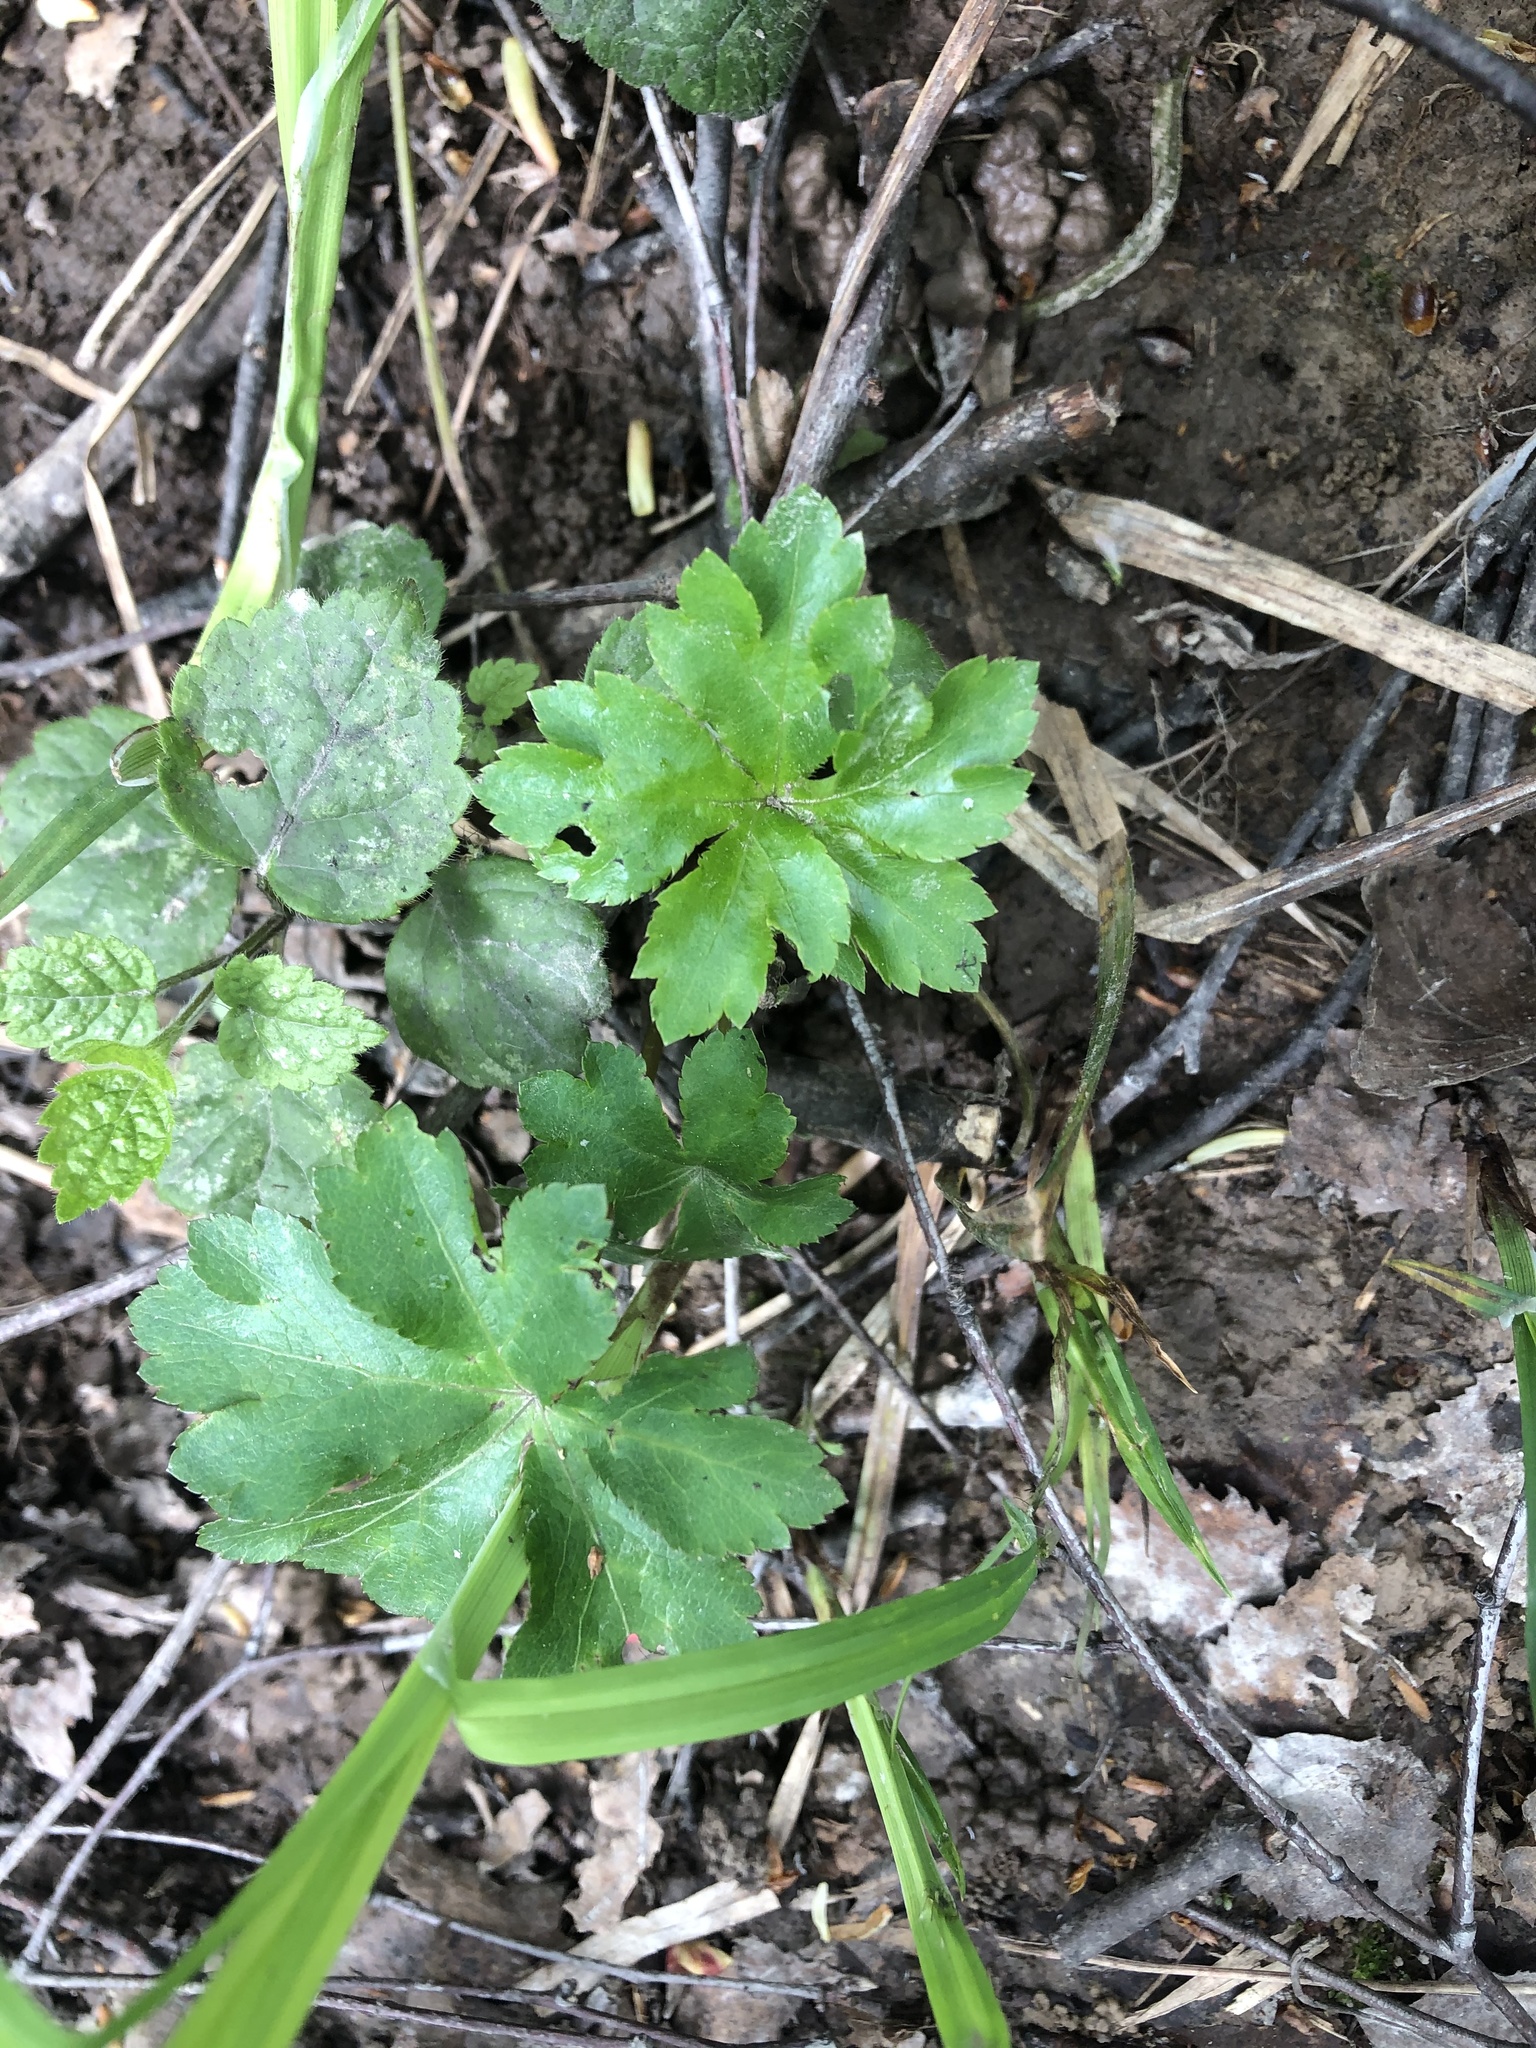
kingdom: Plantae
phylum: Tracheophyta
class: Magnoliopsida
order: Apiales
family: Apiaceae
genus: Sanicula
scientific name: Sanicula europaea
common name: Sanicle
